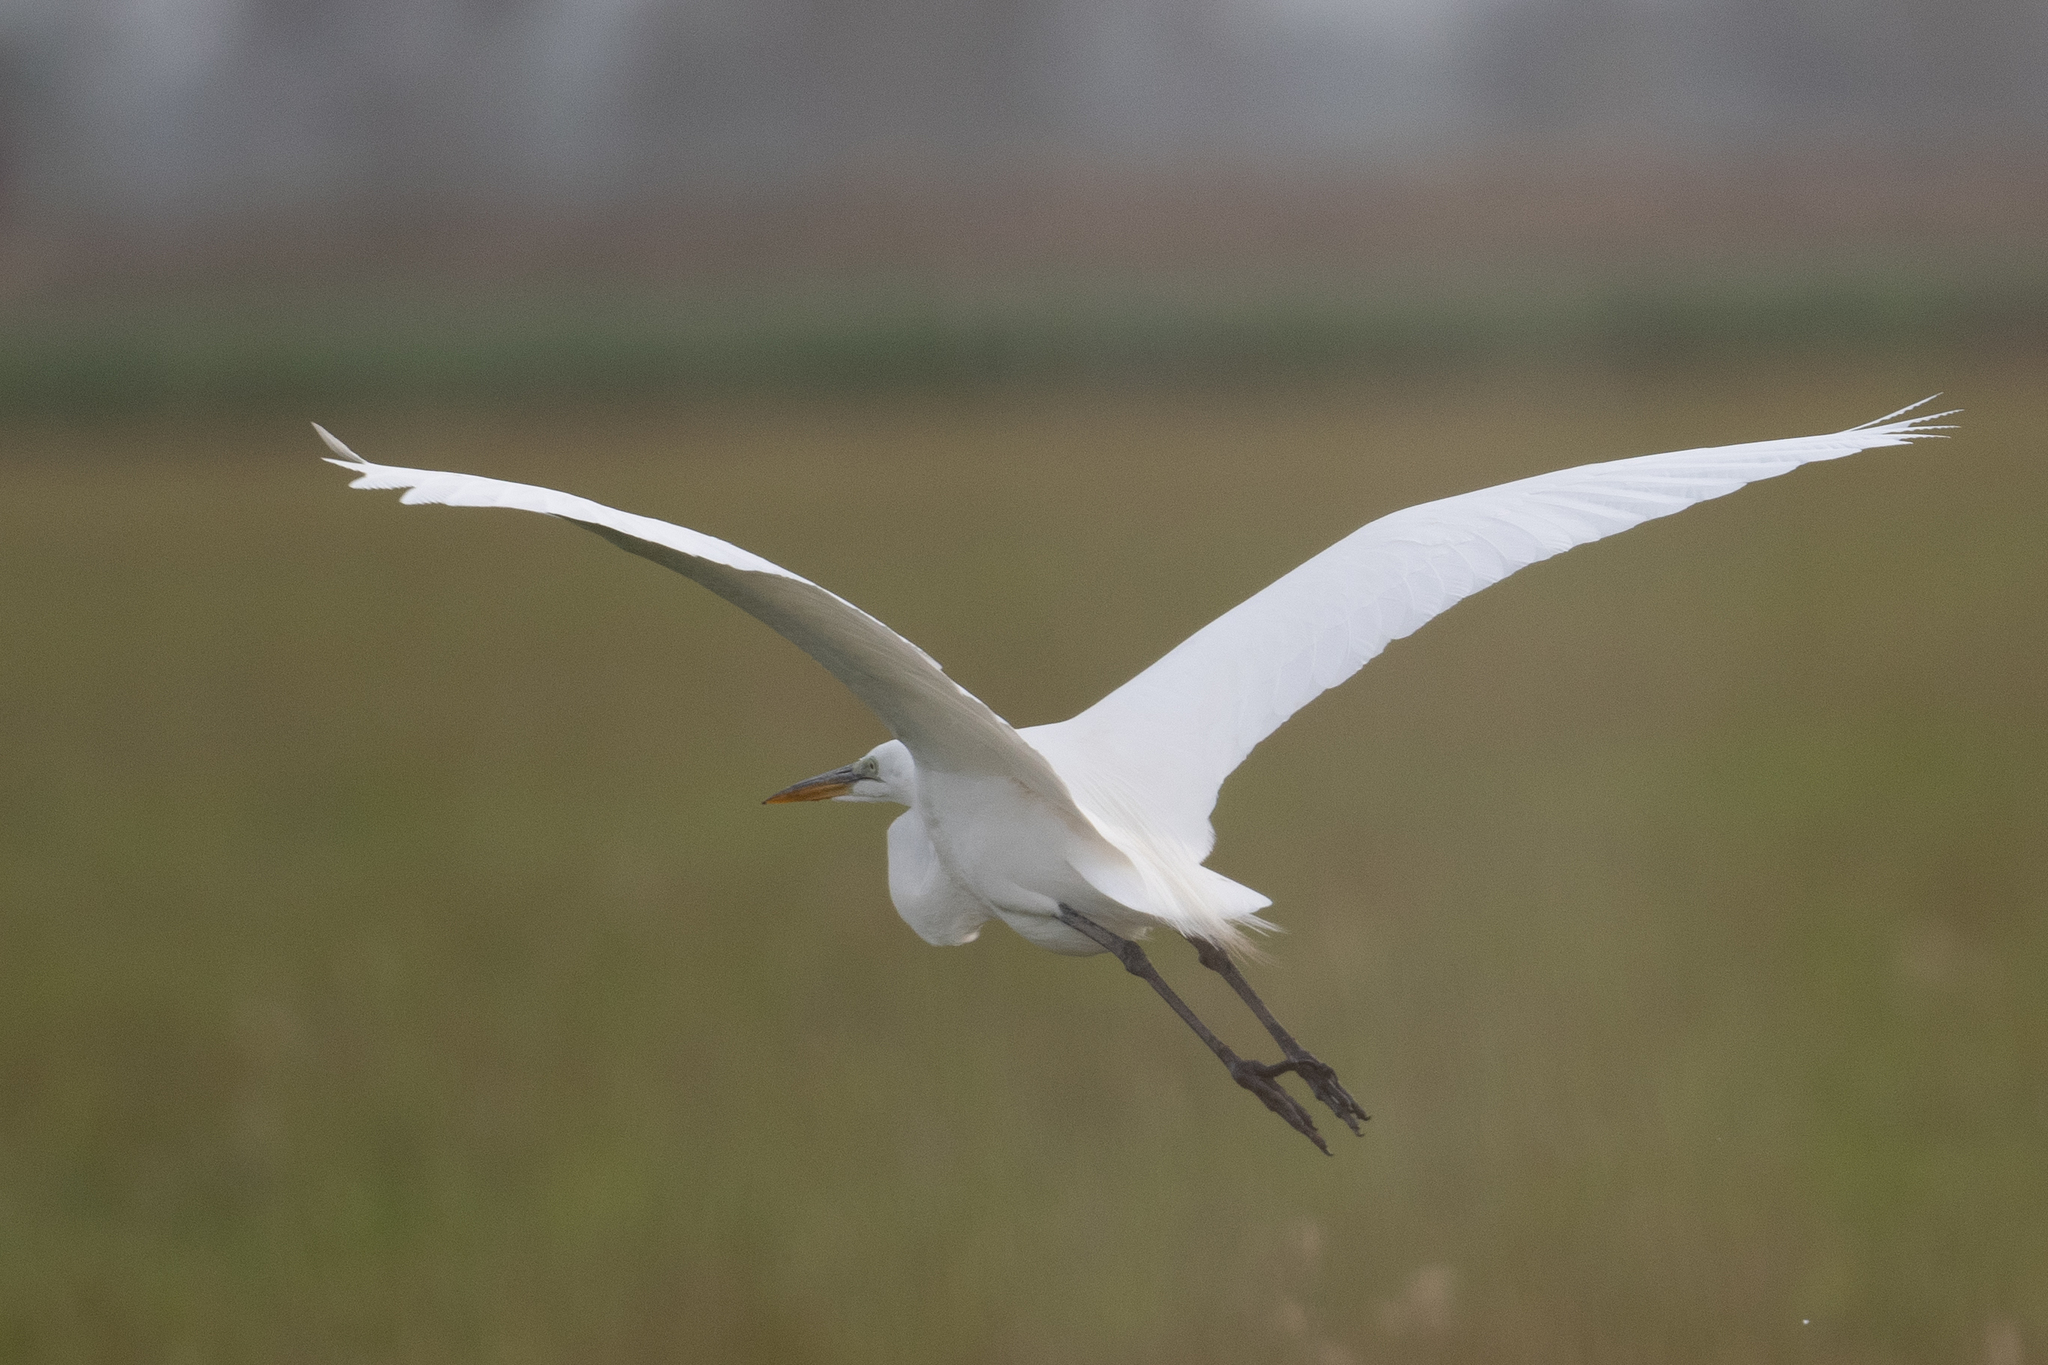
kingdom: Animalia
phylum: Chordata
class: Aves
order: Pelecaniformes
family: Ardeidae
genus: Ardea
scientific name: Ardea alba
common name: Great egret
